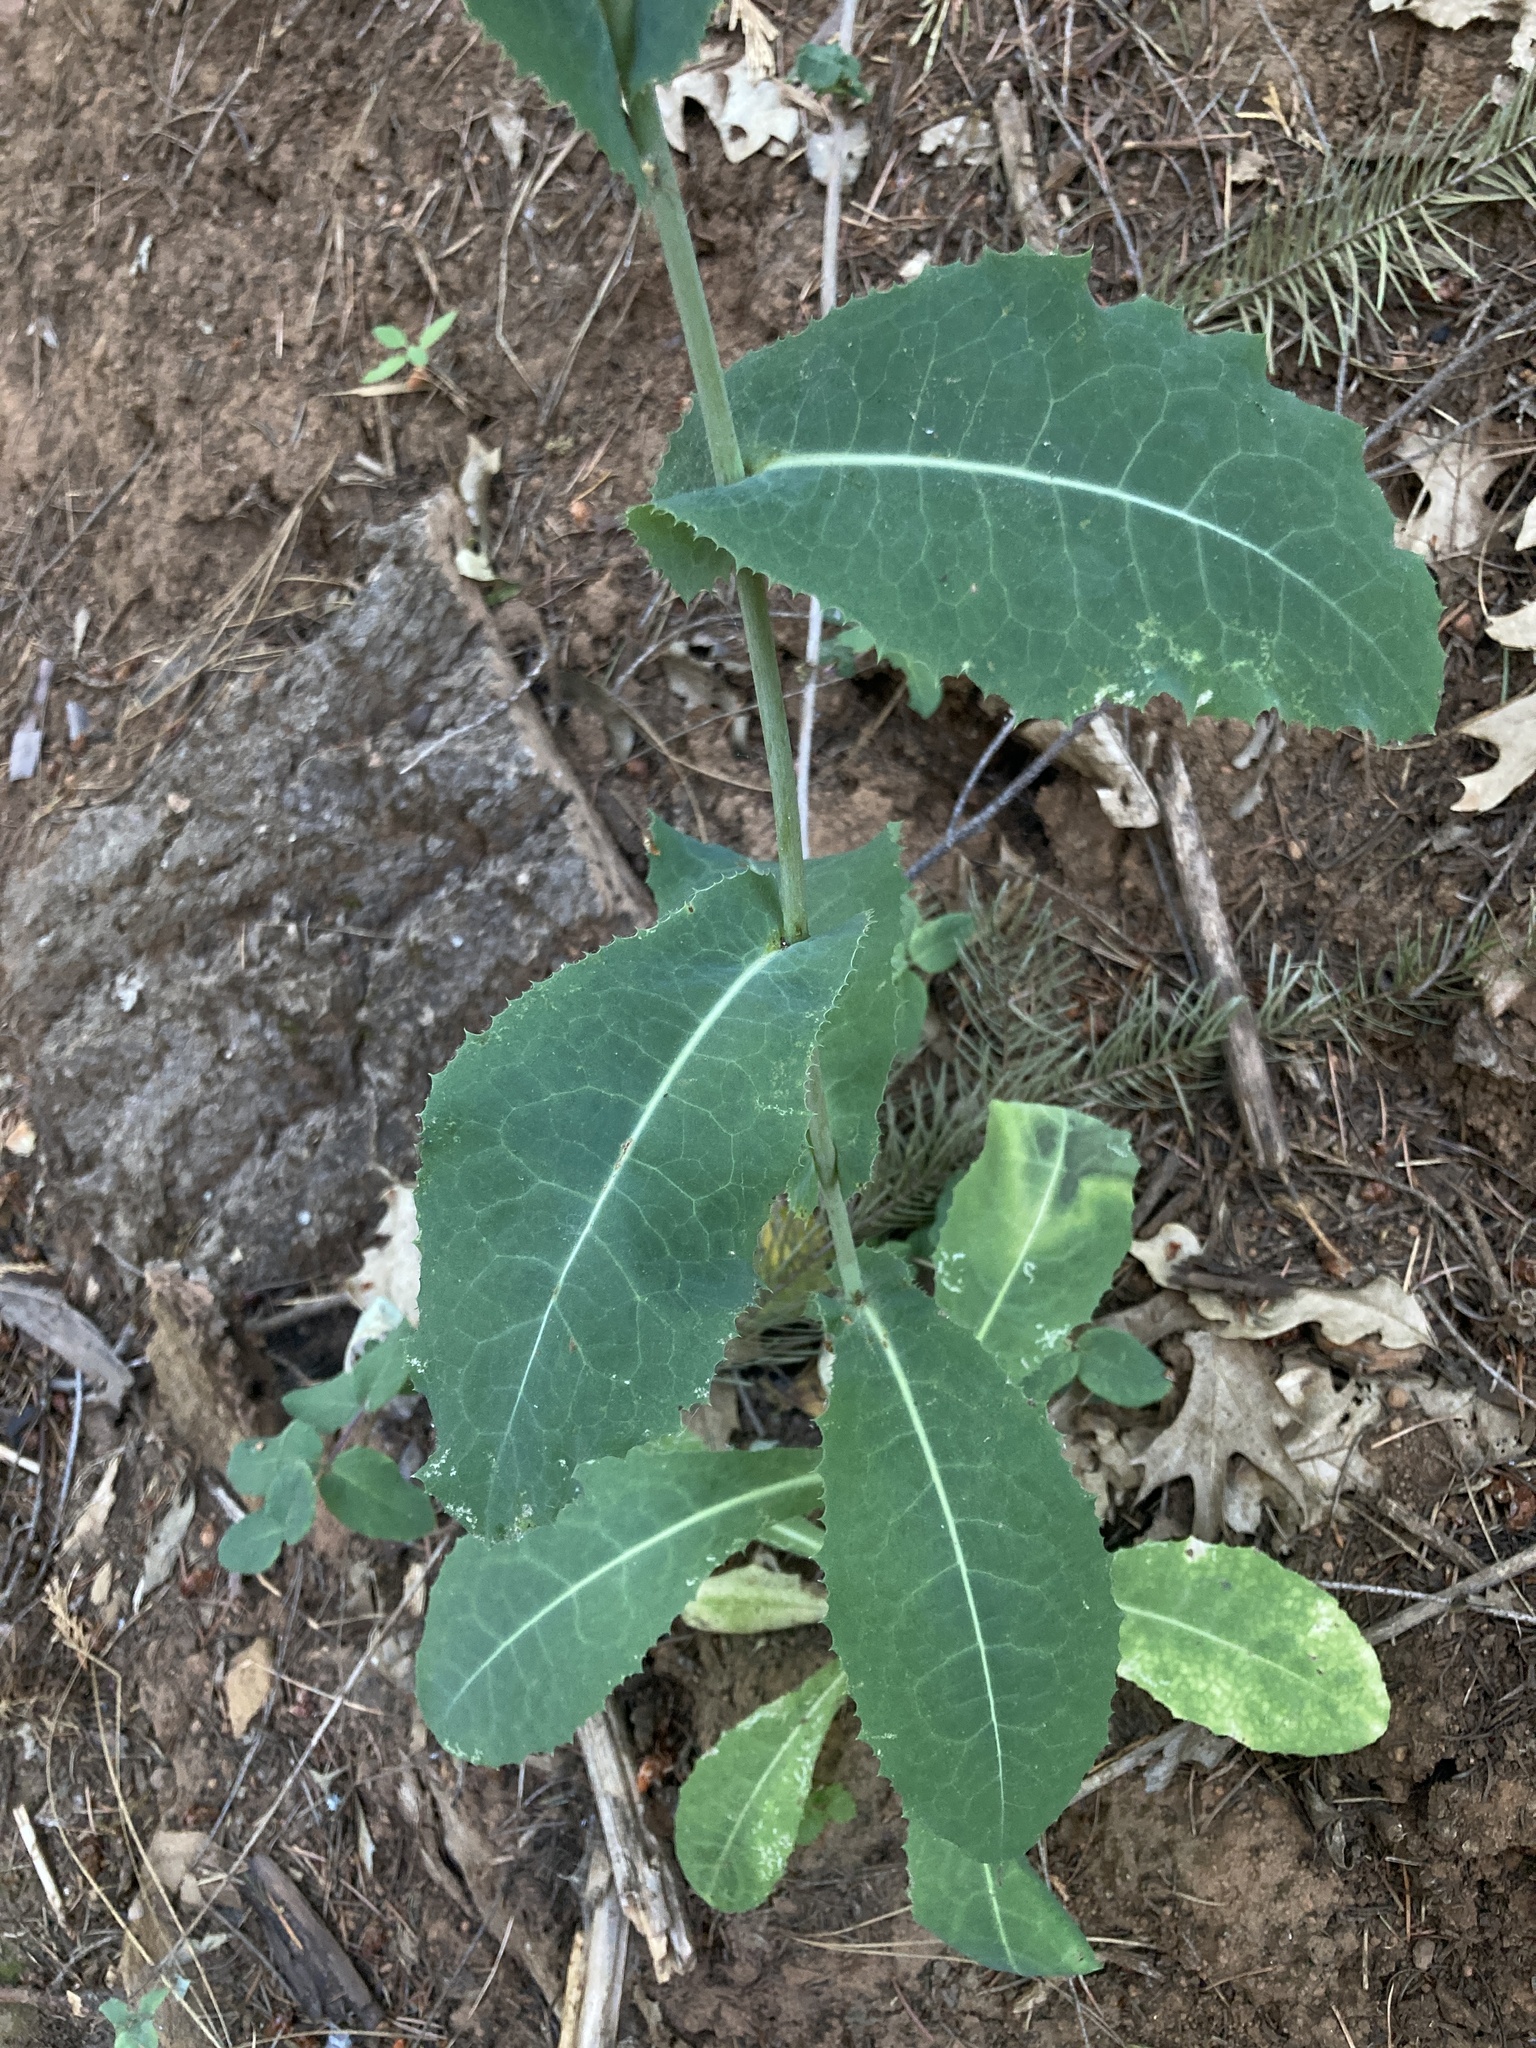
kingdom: Plantae
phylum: Tracheophyta
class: Magnoliopsida
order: Asterales
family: Asteraceae
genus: Lactuca
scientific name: Lactuca virosa
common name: Great lettuce
